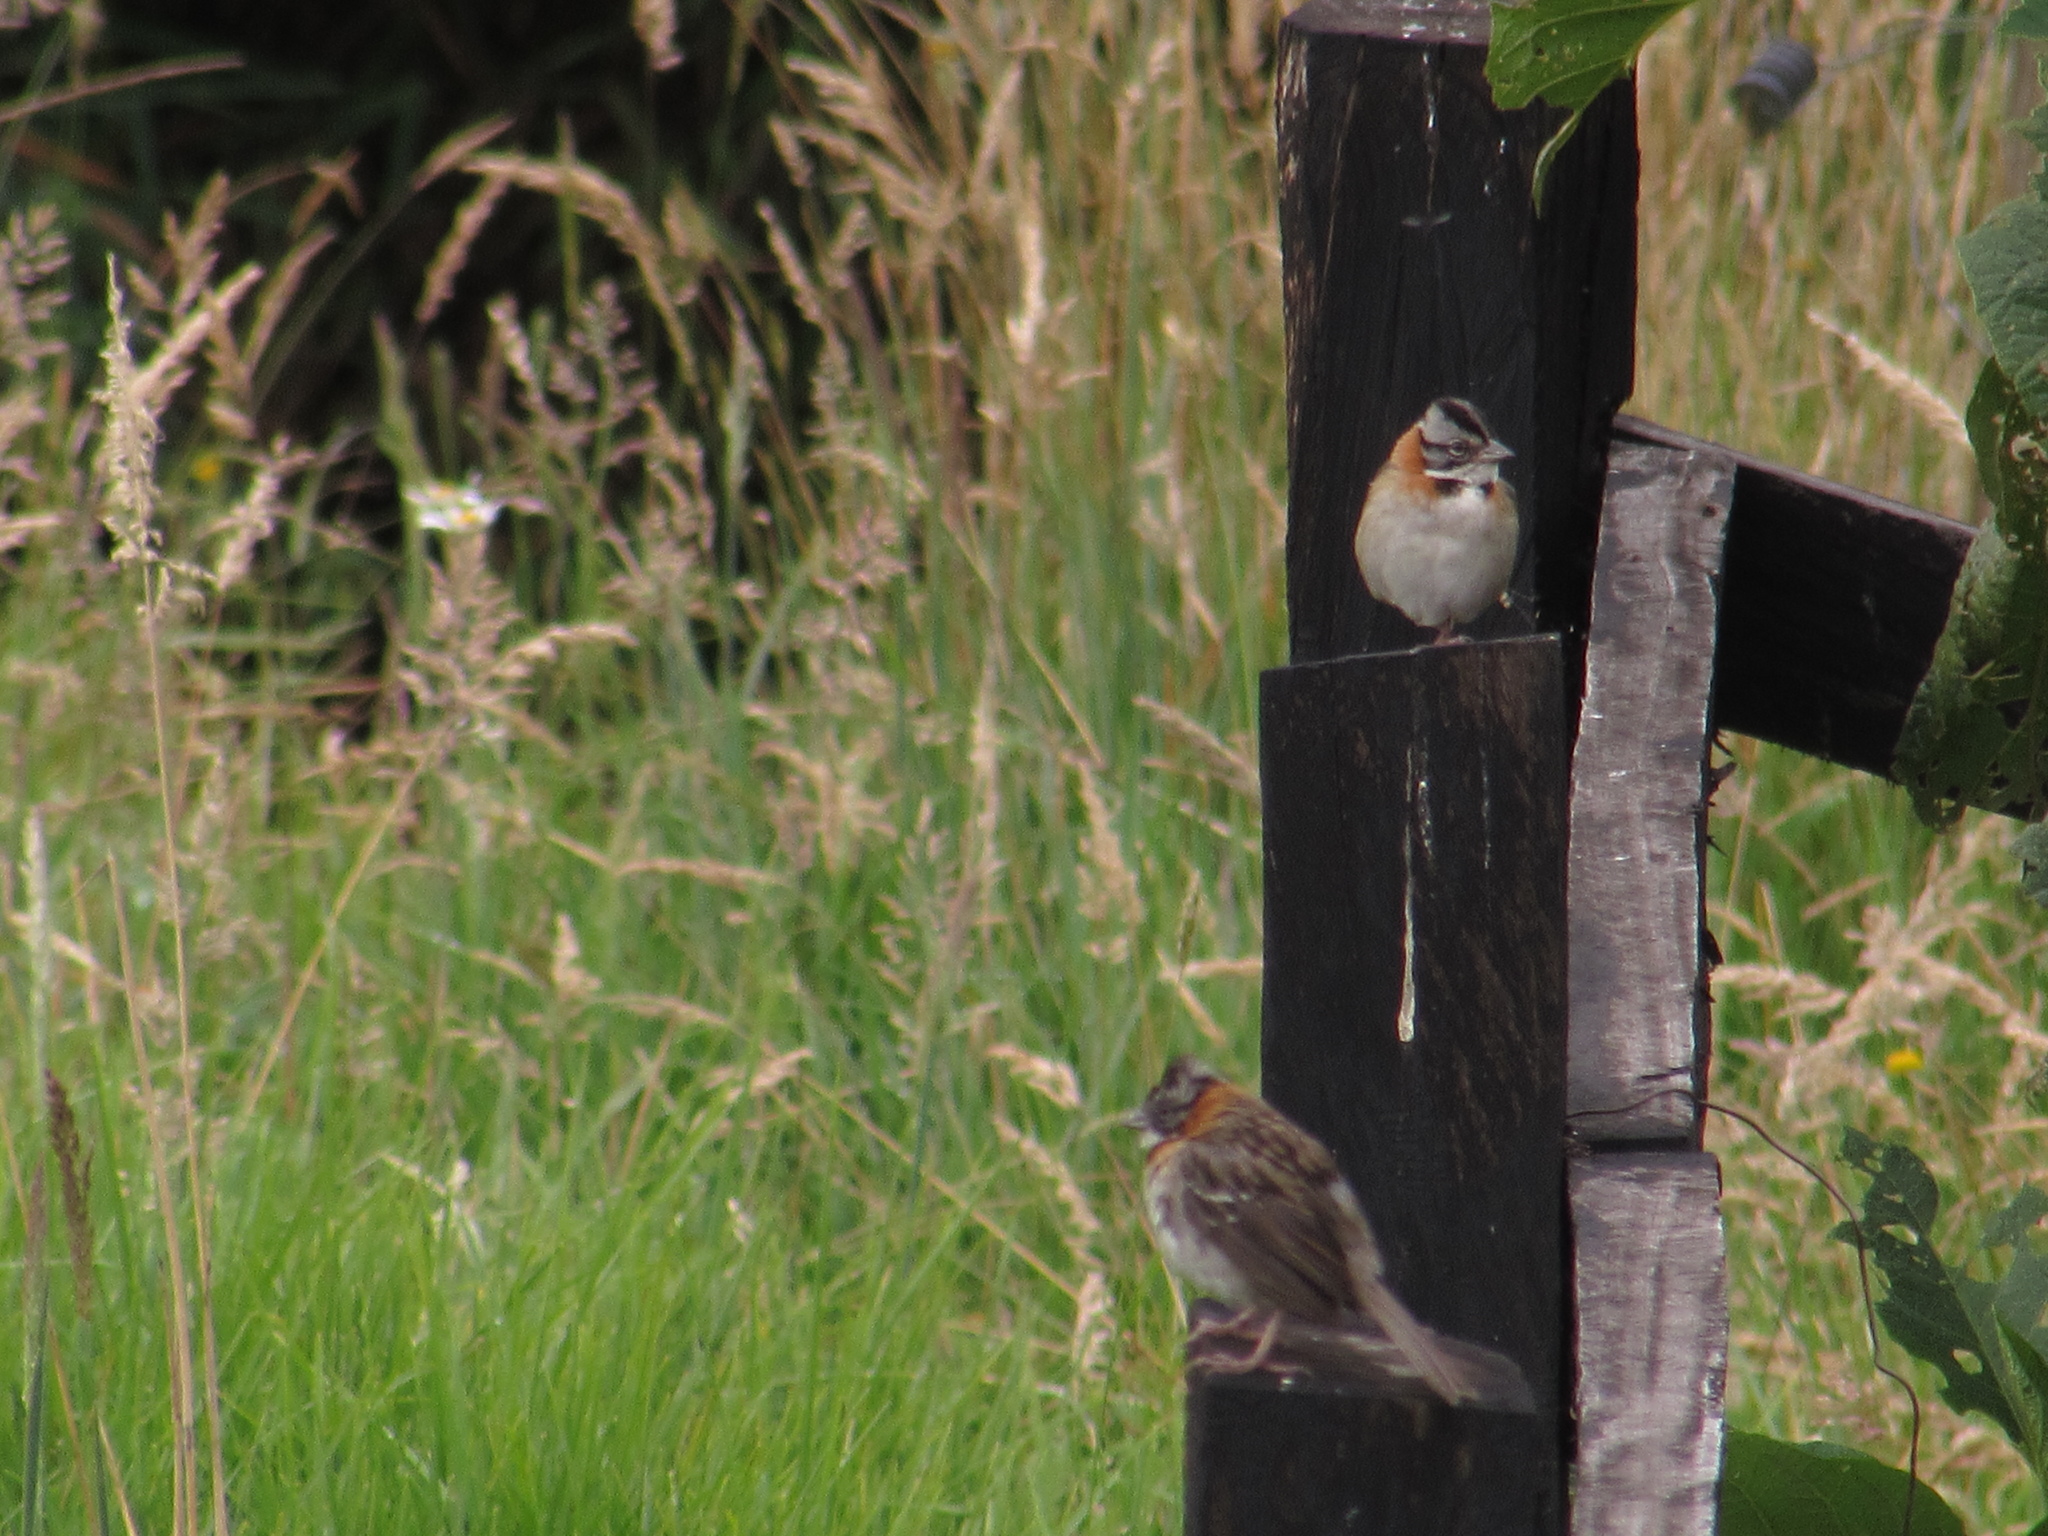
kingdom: Animalia
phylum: Chordata
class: Aves
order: Passeriformes
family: Passerellidae
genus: Zonotrichia
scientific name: Zonotrichia capensis
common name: Rufous-collared sparrow
